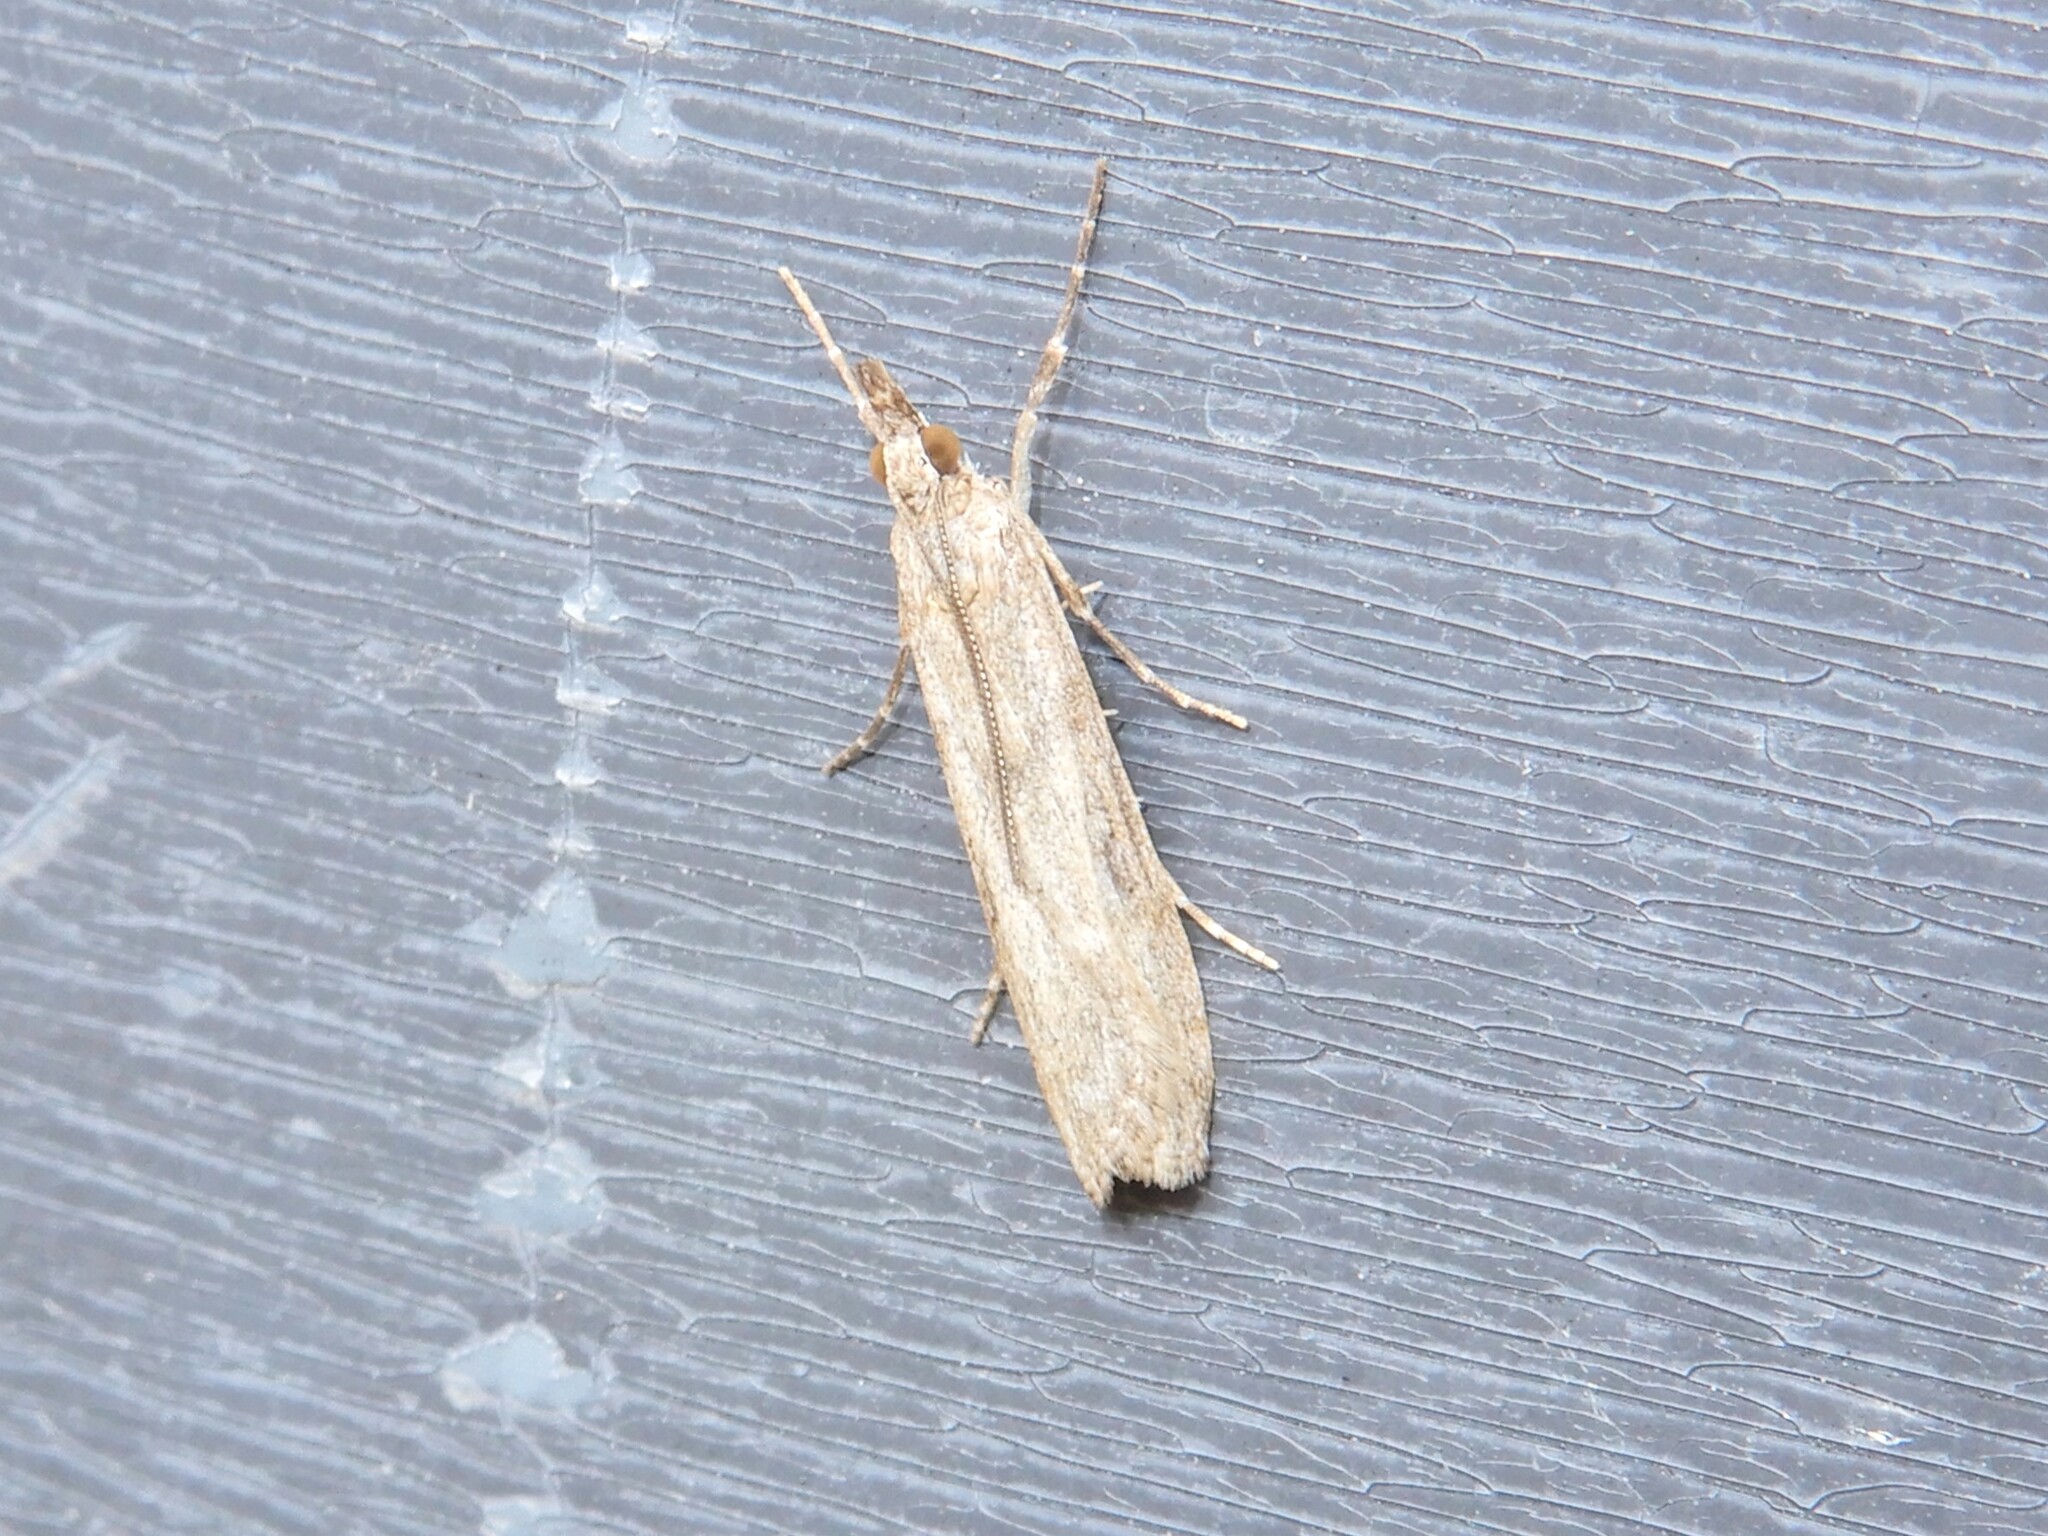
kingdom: Animalia
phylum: Arthropoda
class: Insecta
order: Lepidoptera
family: Crambidae
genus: Eudonia
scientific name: Eudonia leptalea
